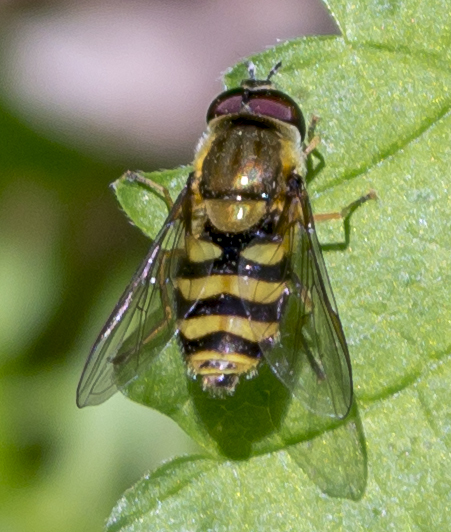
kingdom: Animalia
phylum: Arthropoda
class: Insecta
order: Diptera
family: Syrphidae
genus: Syrphus
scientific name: Syrphus torvus
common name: Hairy-eyed flower fly
